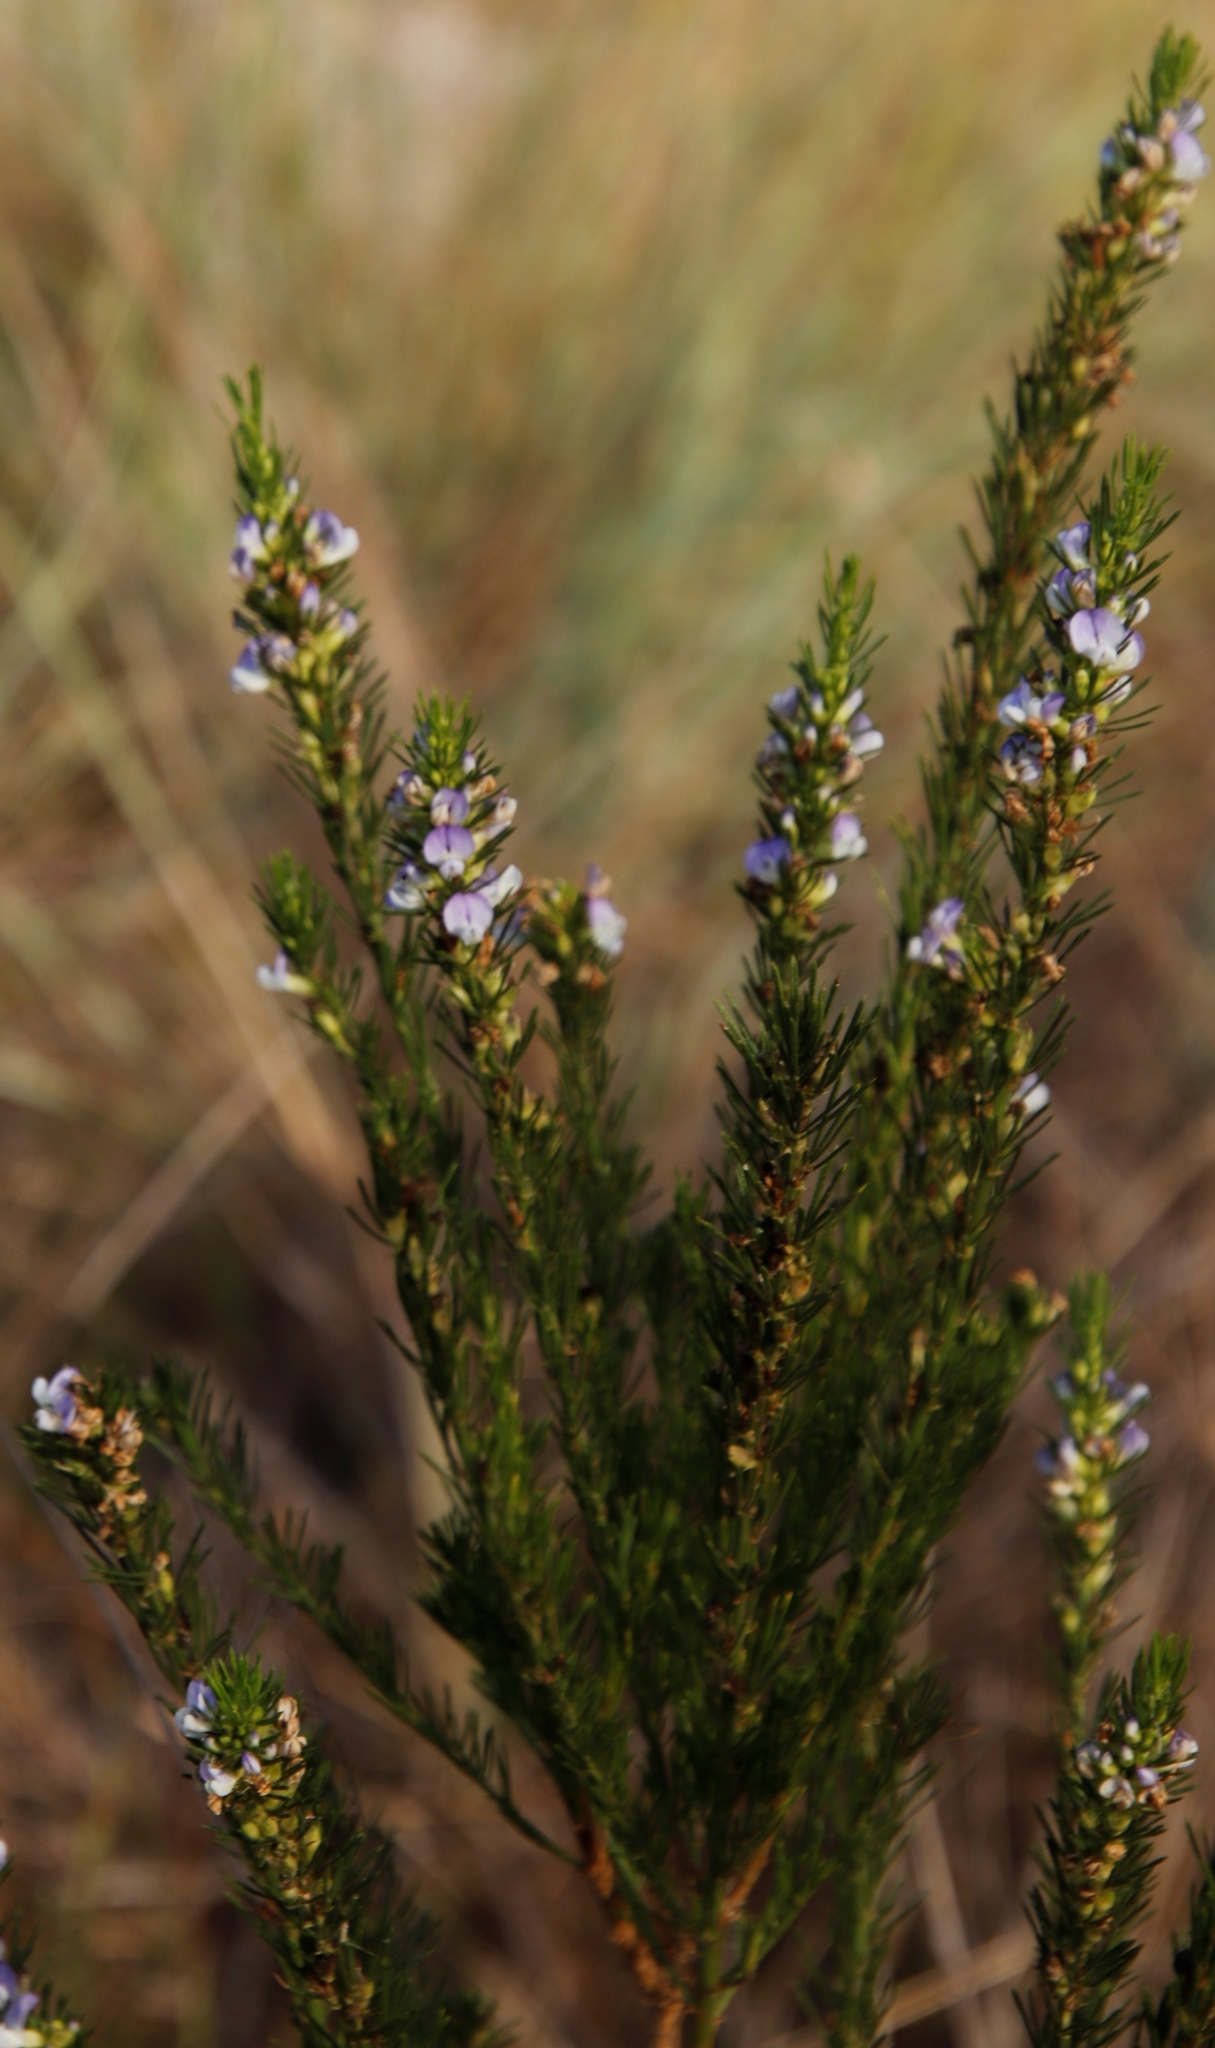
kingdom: Plantae
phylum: Tracheophyta
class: Magnoliopsida
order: Fabales
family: Fabaceae
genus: Psoralea
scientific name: Psoralea pinnata
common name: African scurfpea
